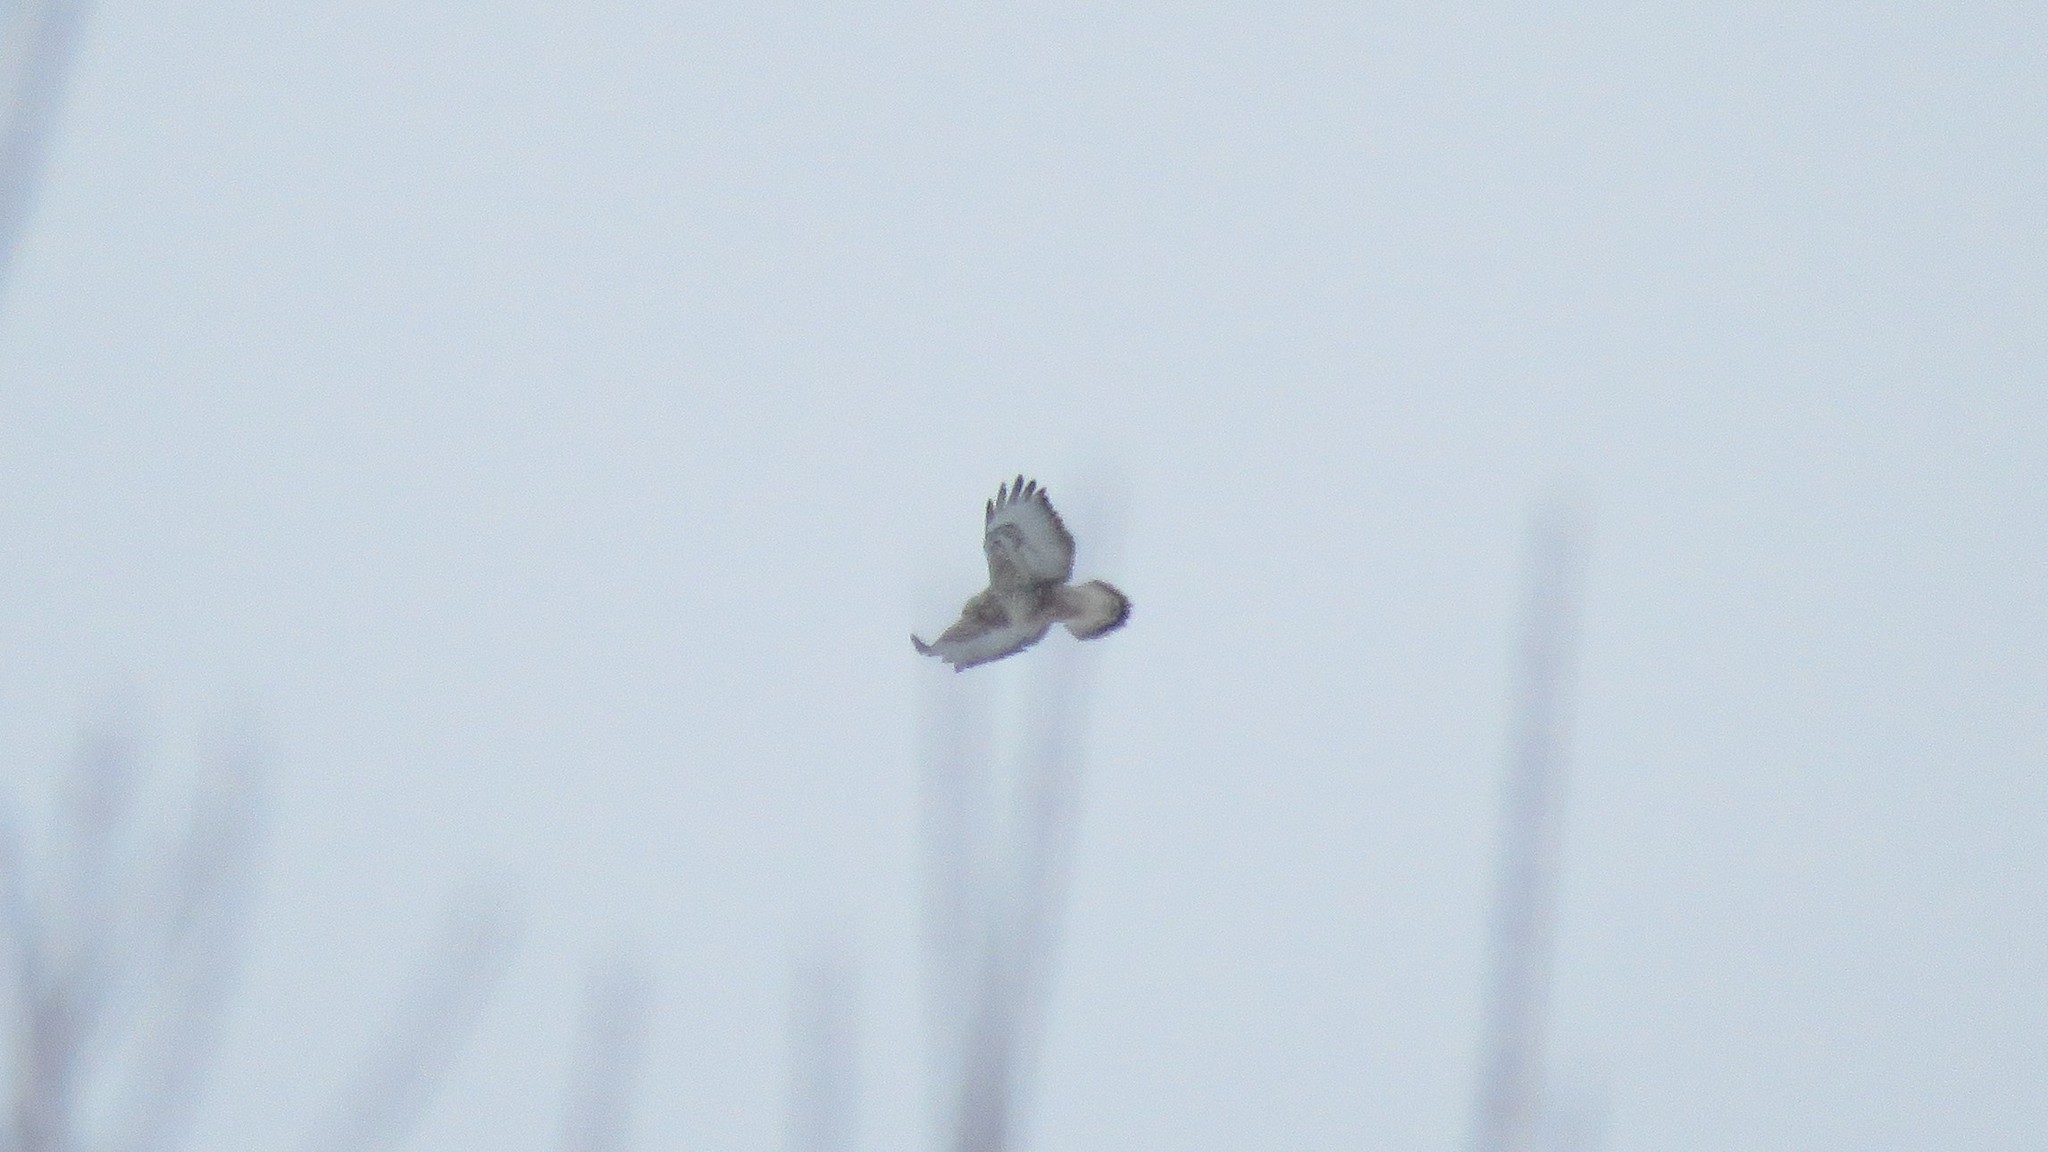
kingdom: Animalia
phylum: Chordata
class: Aves
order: Accipitriformes
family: Accipitridae
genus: Buteo
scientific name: Buteo lagopus
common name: Rough-legged buzzard
